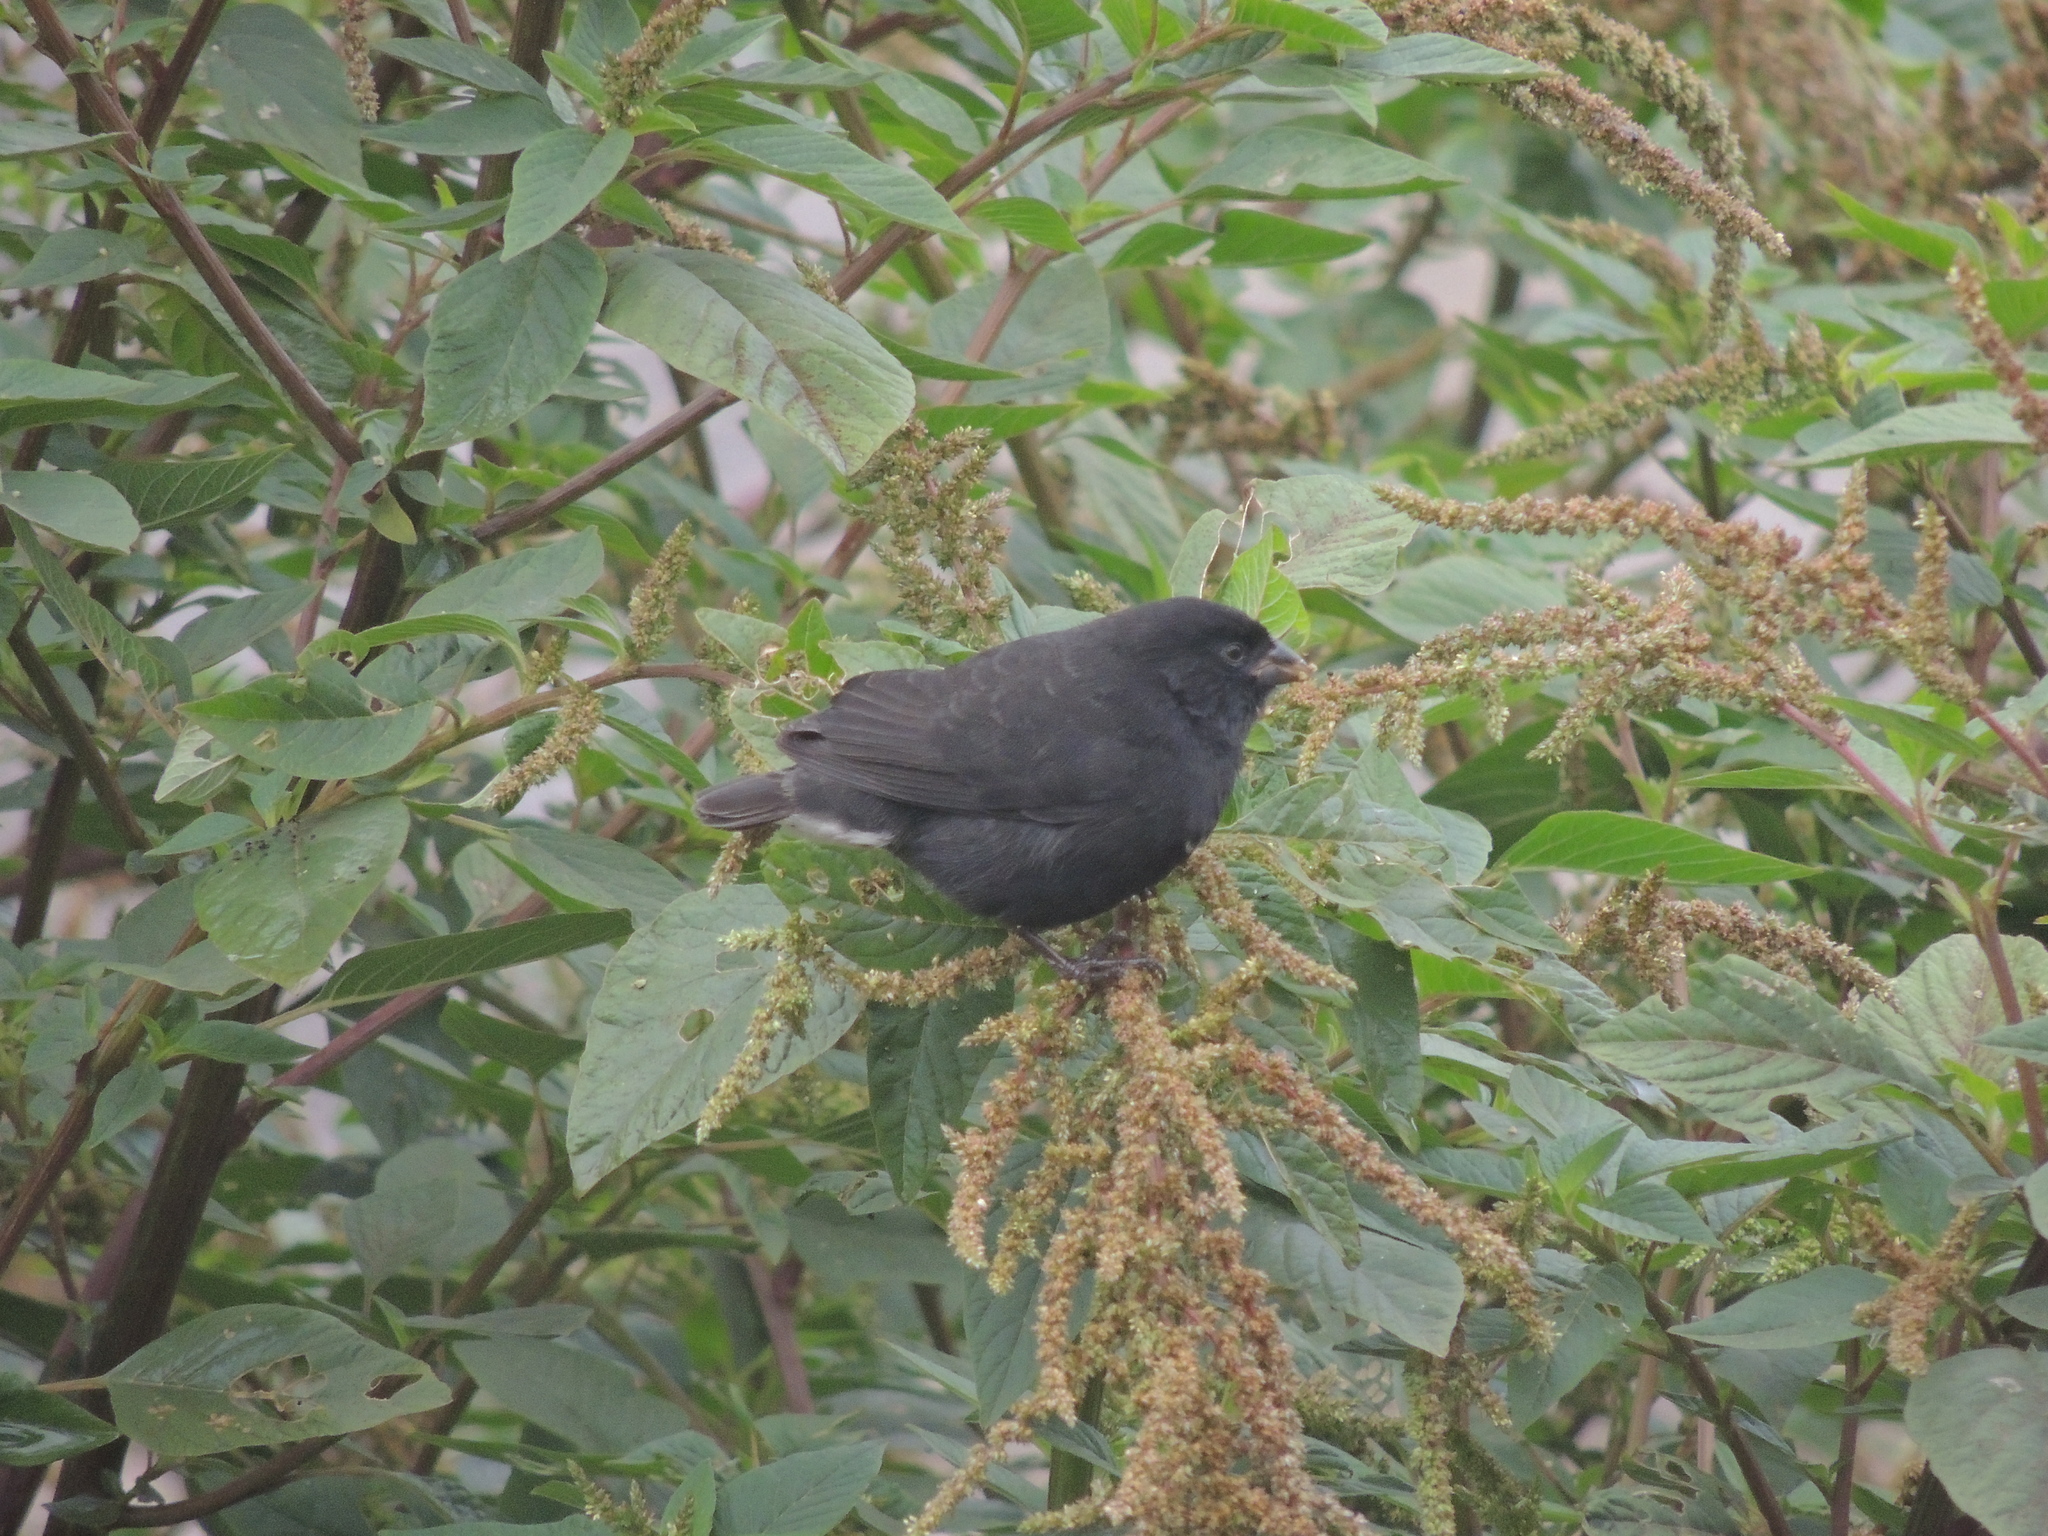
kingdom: Animalia
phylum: Chordata
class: Aves
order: Passeriformes
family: Thraupidae
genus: Geospiza
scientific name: Geospiza fuliginosa
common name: Small ground finch
